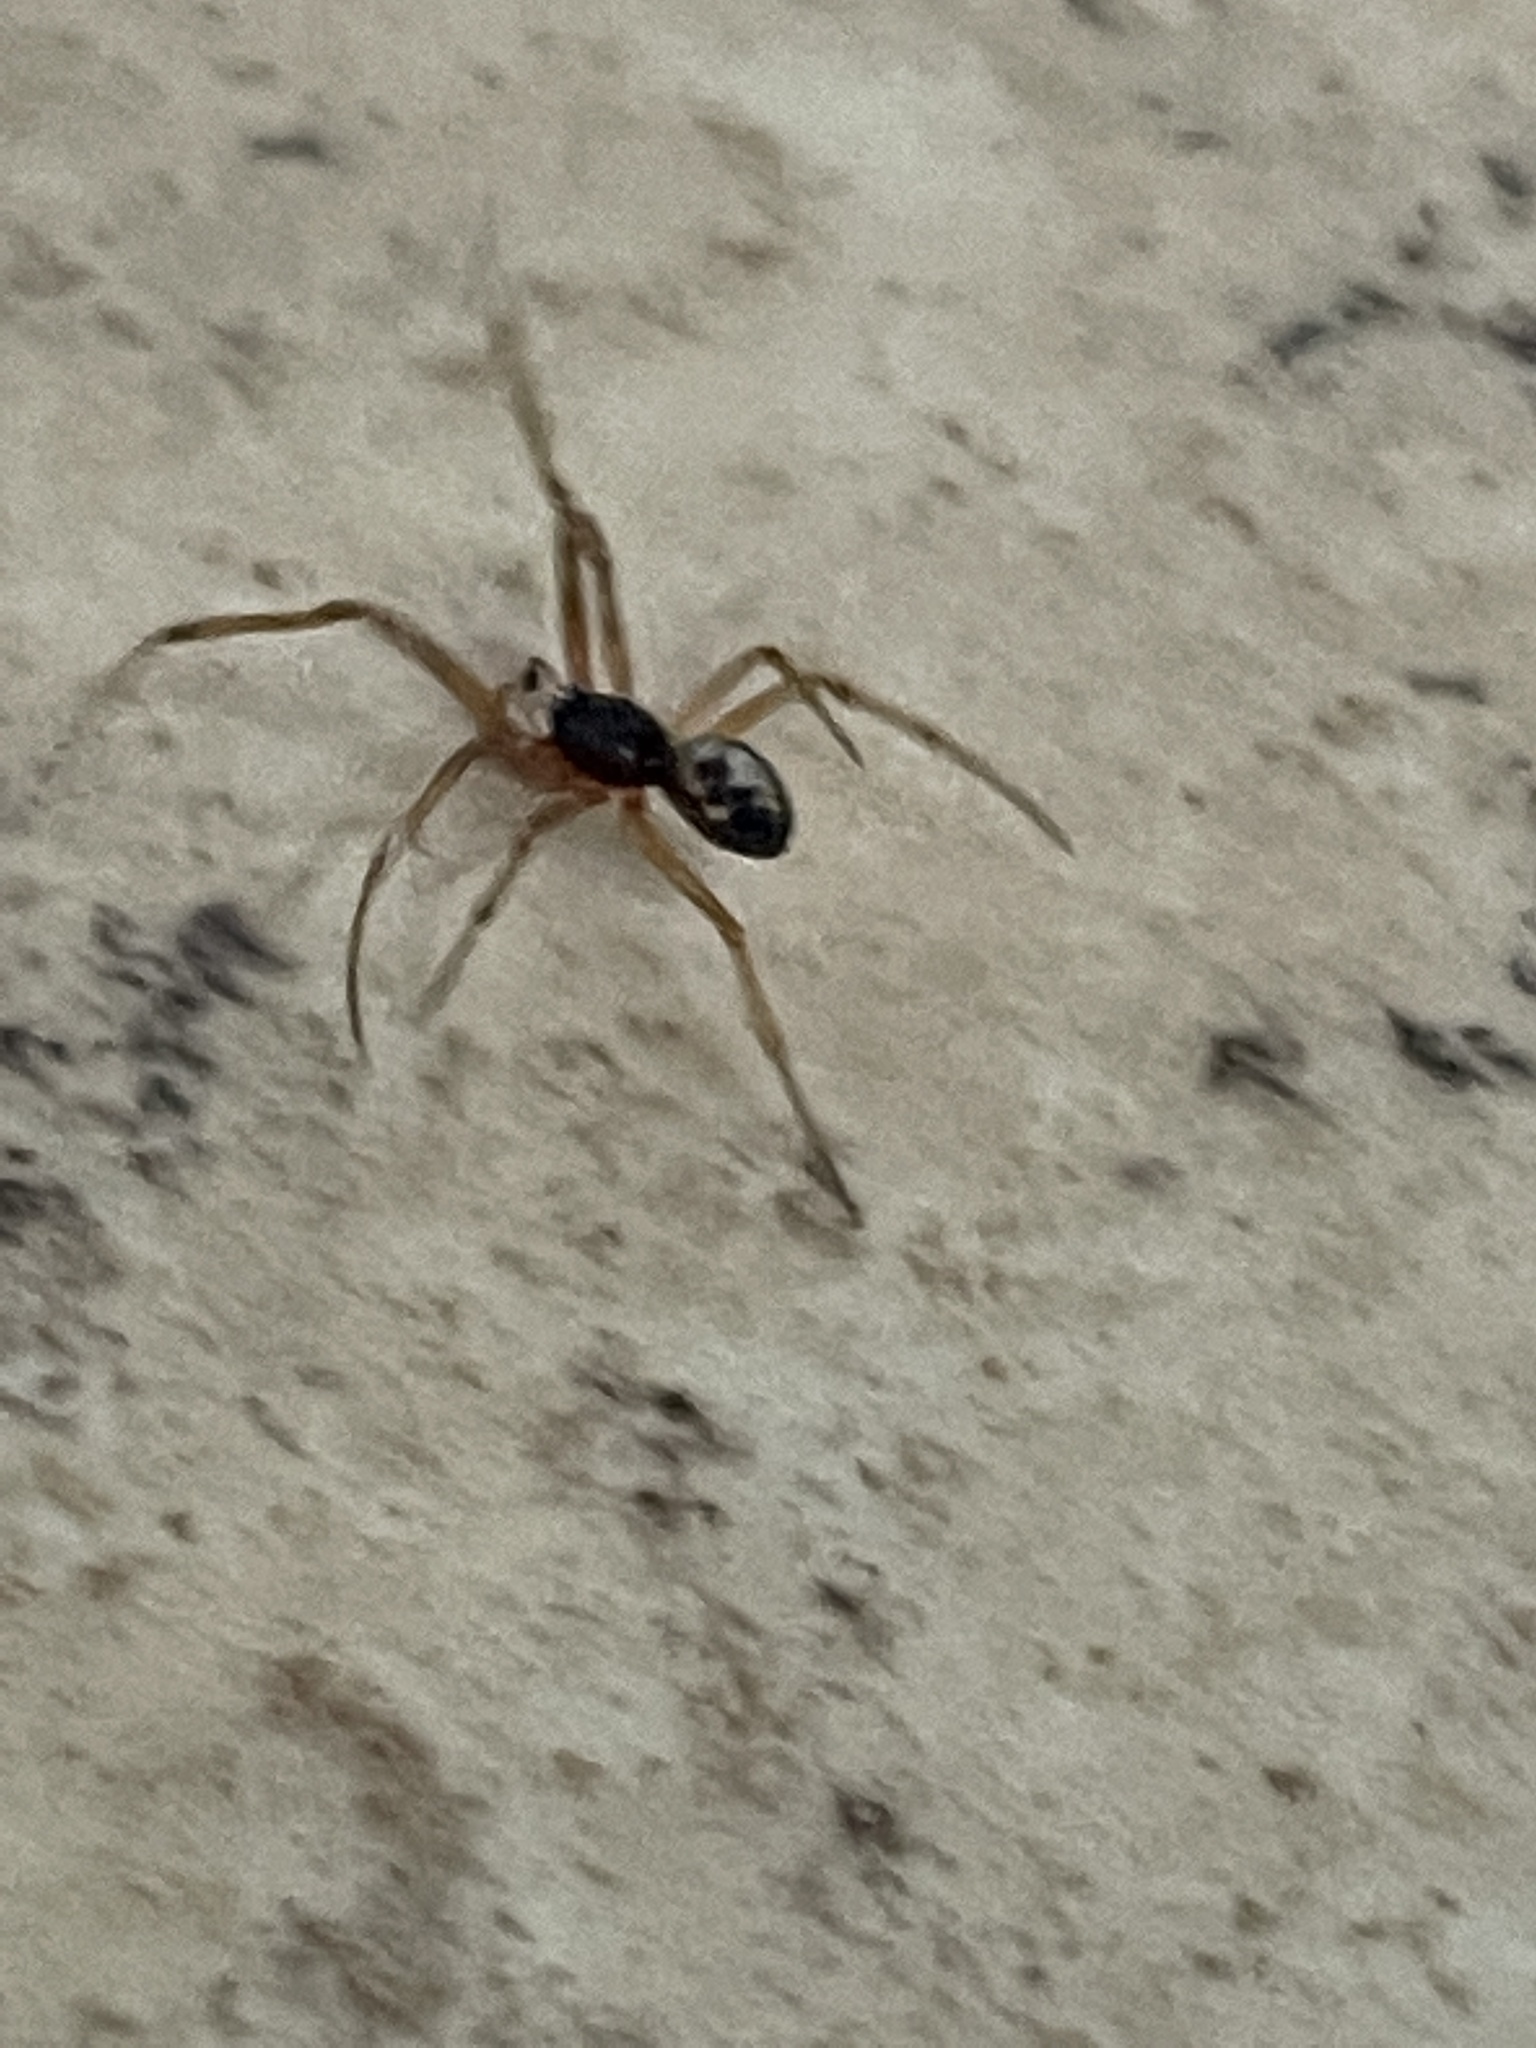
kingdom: Animalia
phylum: Arthropoda
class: Arachnida
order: Araneae
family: Theridiidae
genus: Steatoda
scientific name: Steatoda triangulosa
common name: Triangulate bud spider
